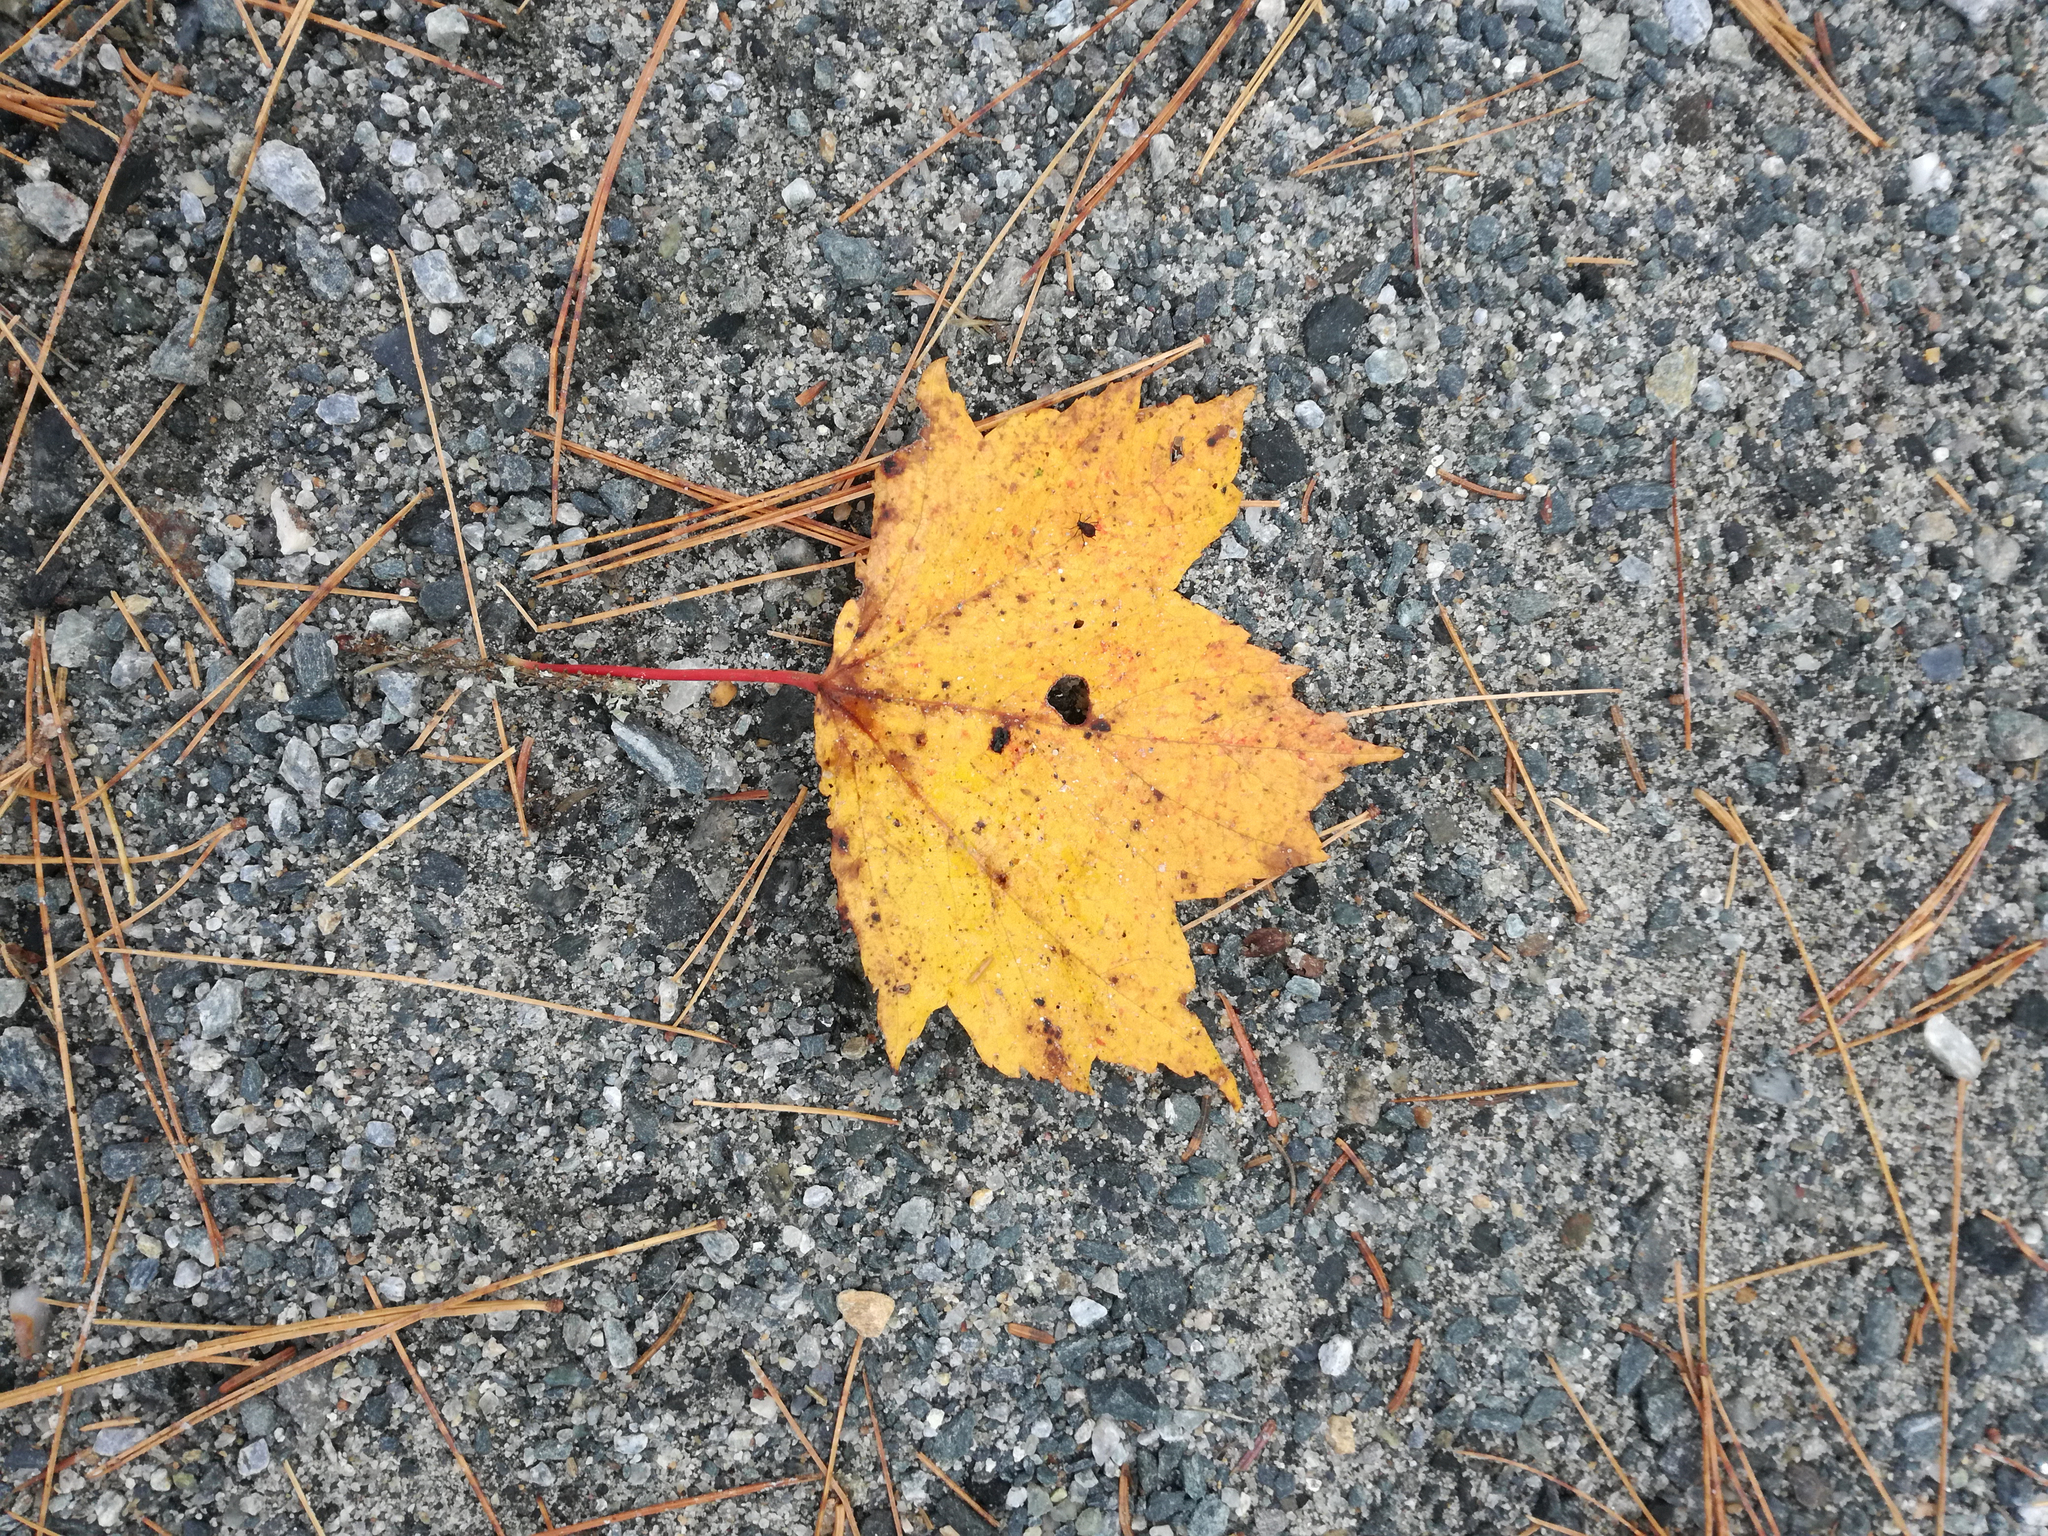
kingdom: Plantae
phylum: Tracheophyta
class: Magnoliopsida
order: Sapindales
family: Sapindaceae
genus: Acer
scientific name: Acer rubrum
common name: Red maple
